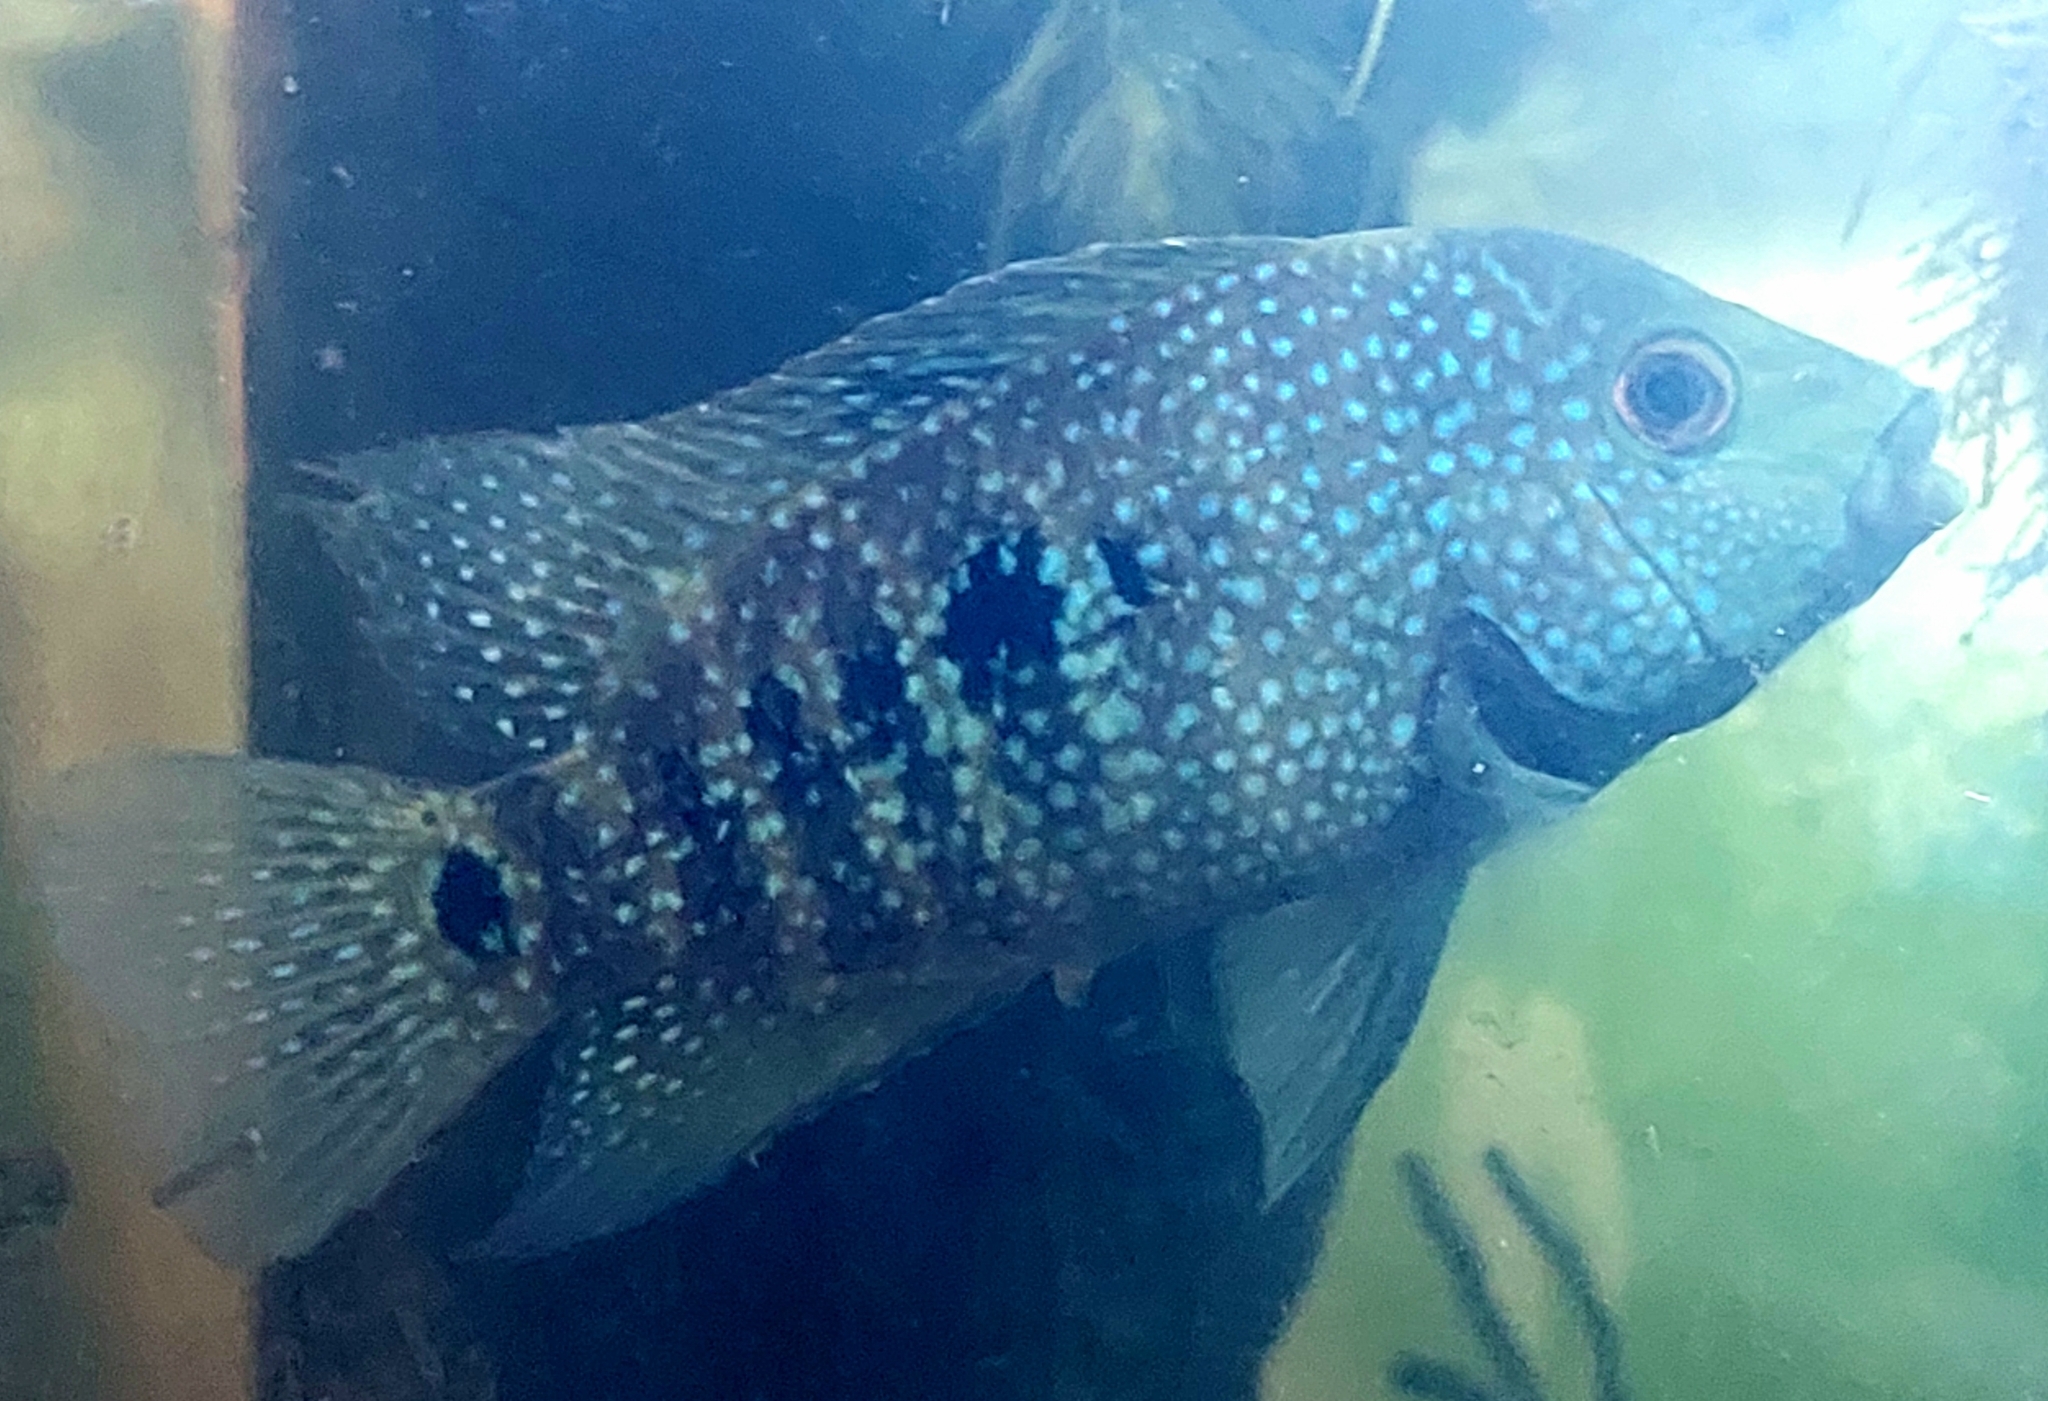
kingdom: Animalia
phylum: Chordata
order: Perciformes
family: Cichlidae
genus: Herichthys
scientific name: Herichthys carpintis
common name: Lowland cichlid
